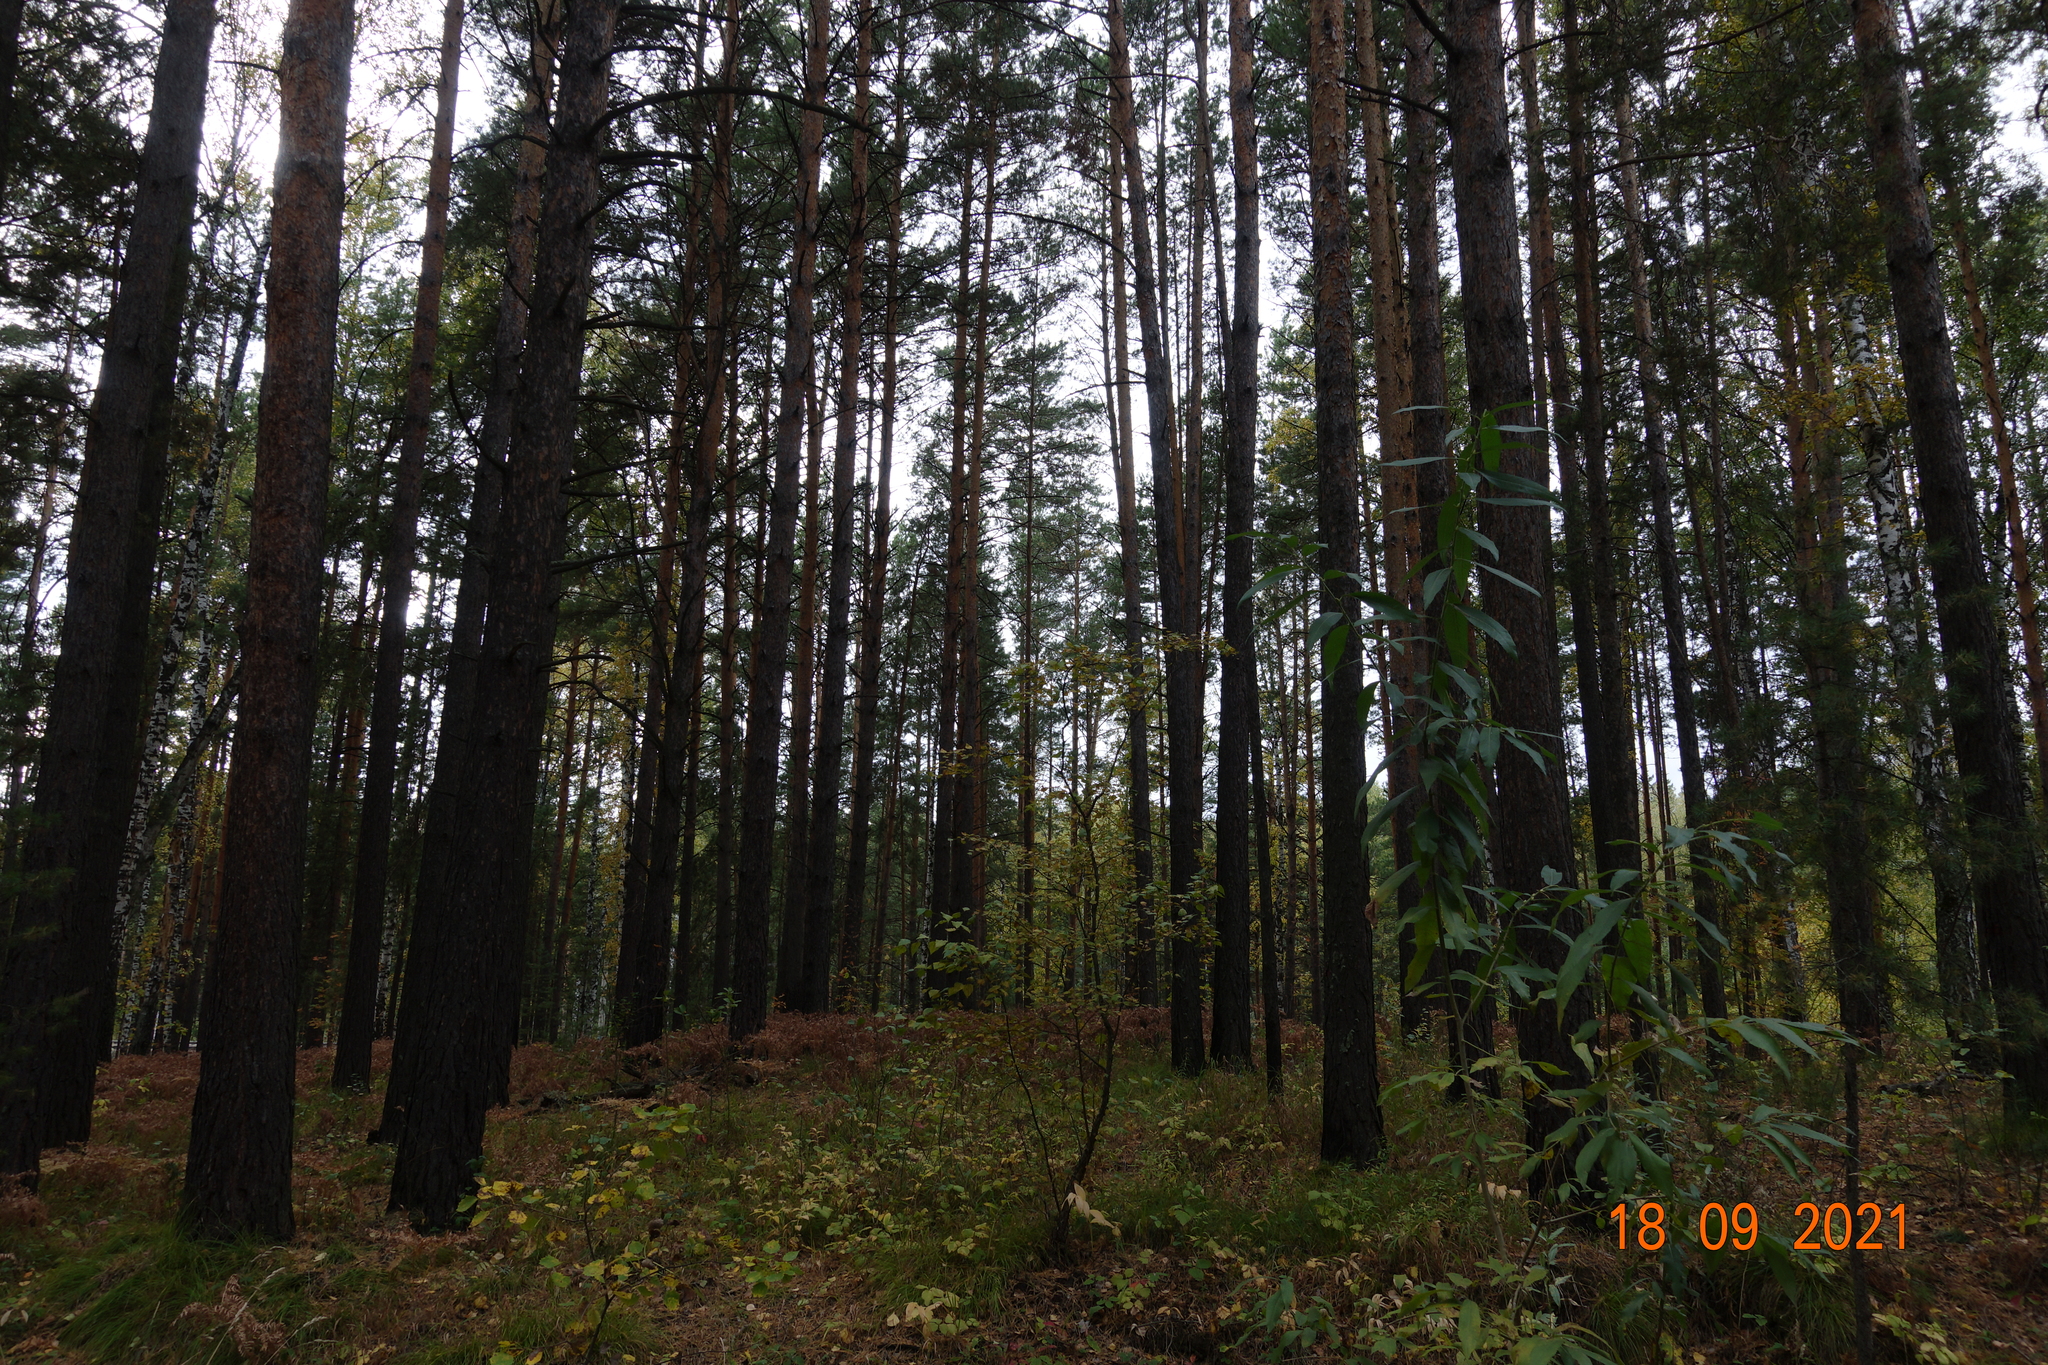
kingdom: Plantae
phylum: Tracheophyta
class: Pinopsida
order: Pinales
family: Pinaceae
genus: Pinus
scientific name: Pinus sylvestris
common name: Scots pine
